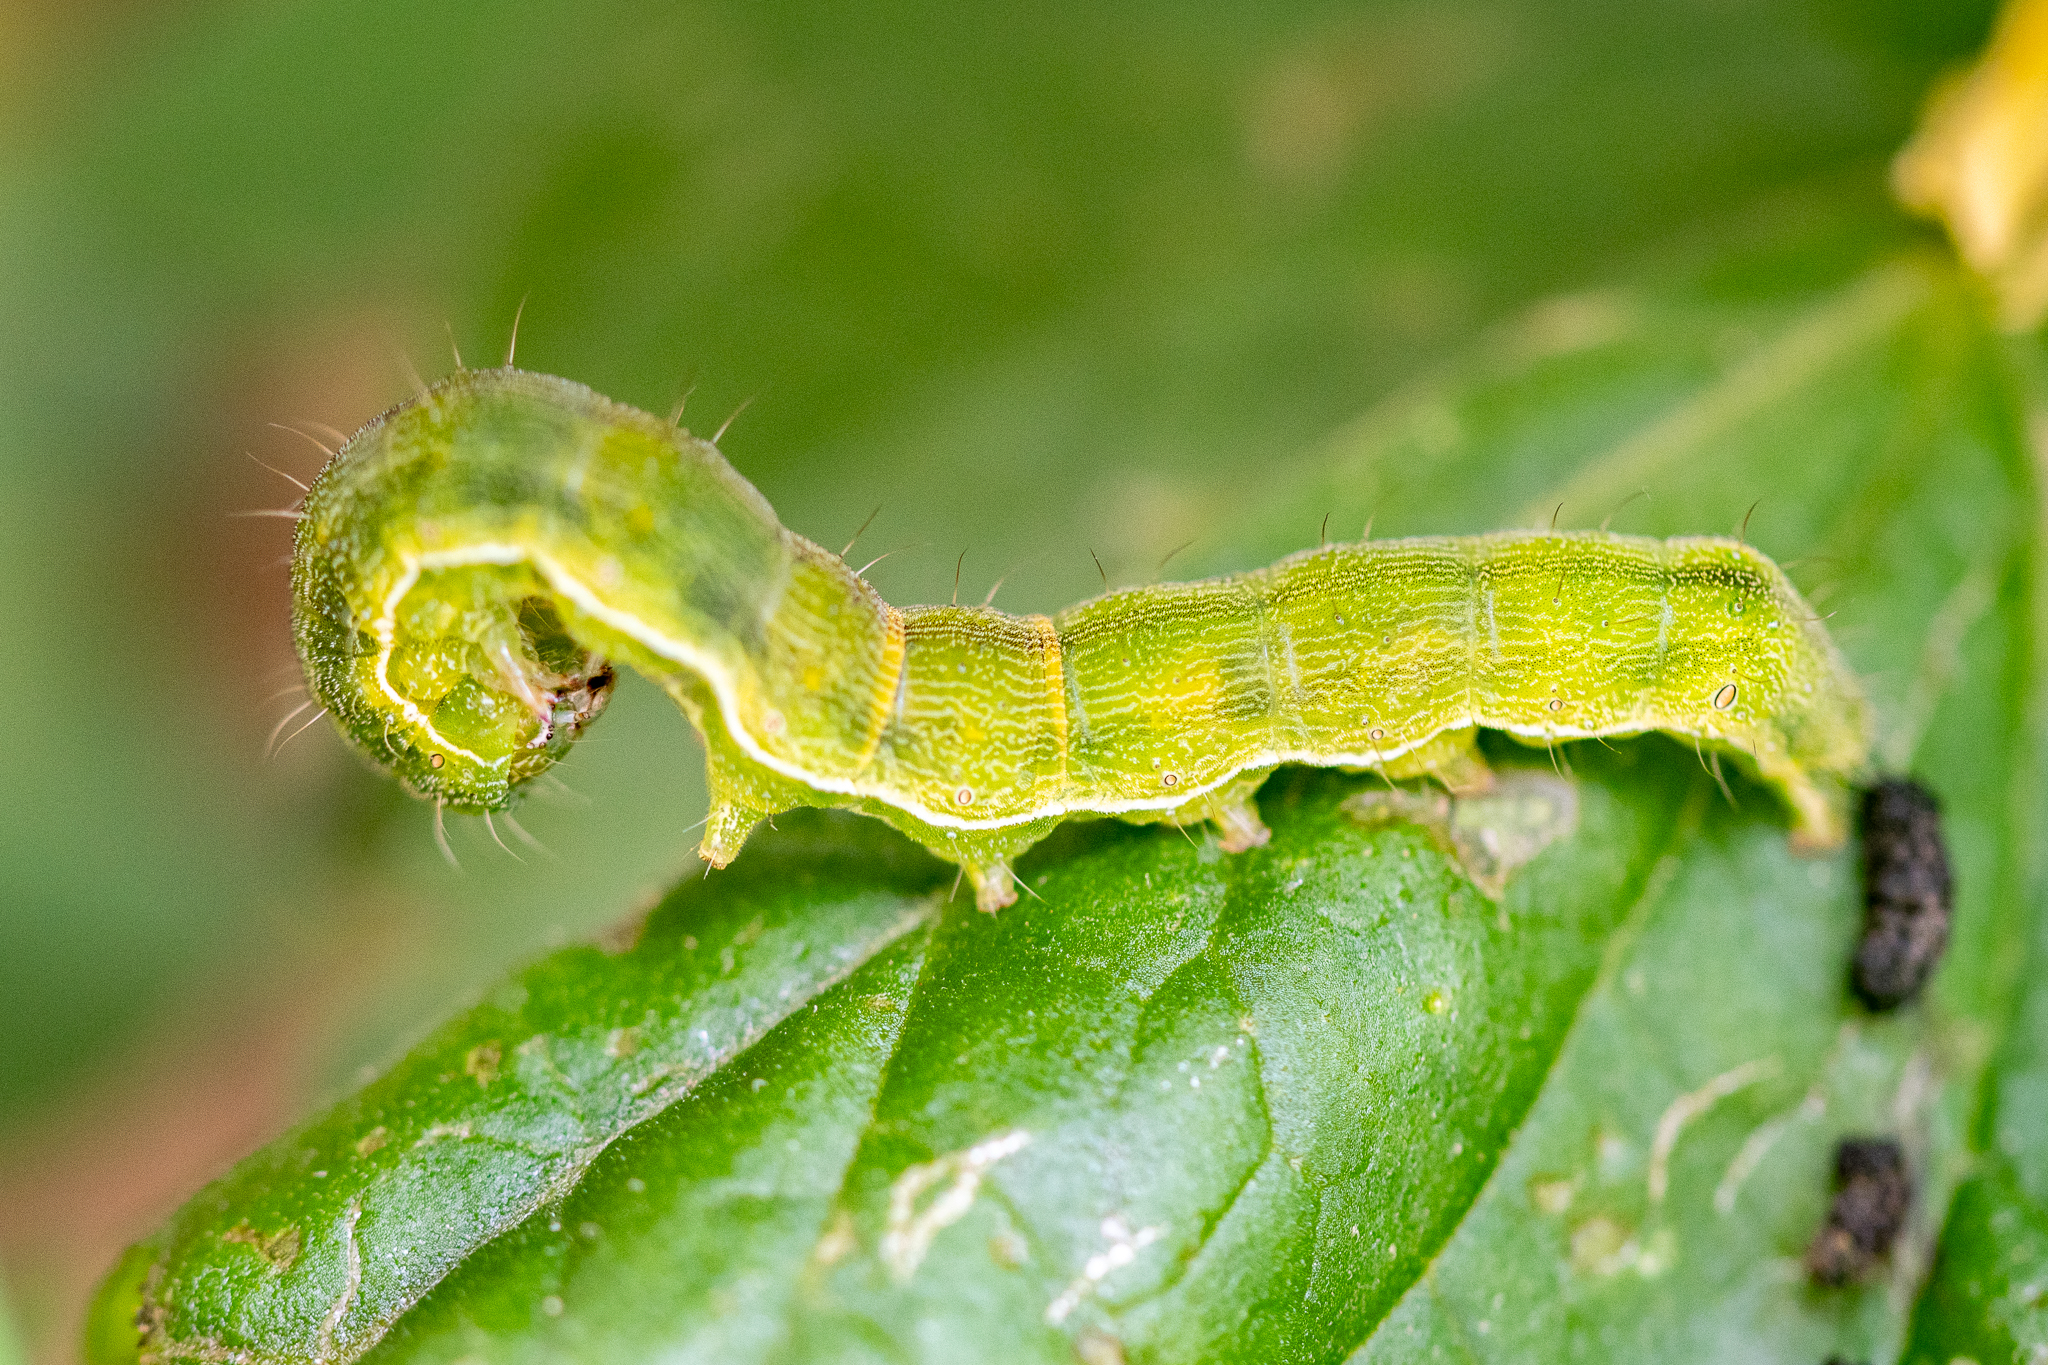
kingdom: Animalia
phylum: Arthropoda
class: Insecta
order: Lepidoptera
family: Noctuidae
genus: Helicoverpa
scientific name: Helicoverpa armigera
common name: Cotton bollworm
